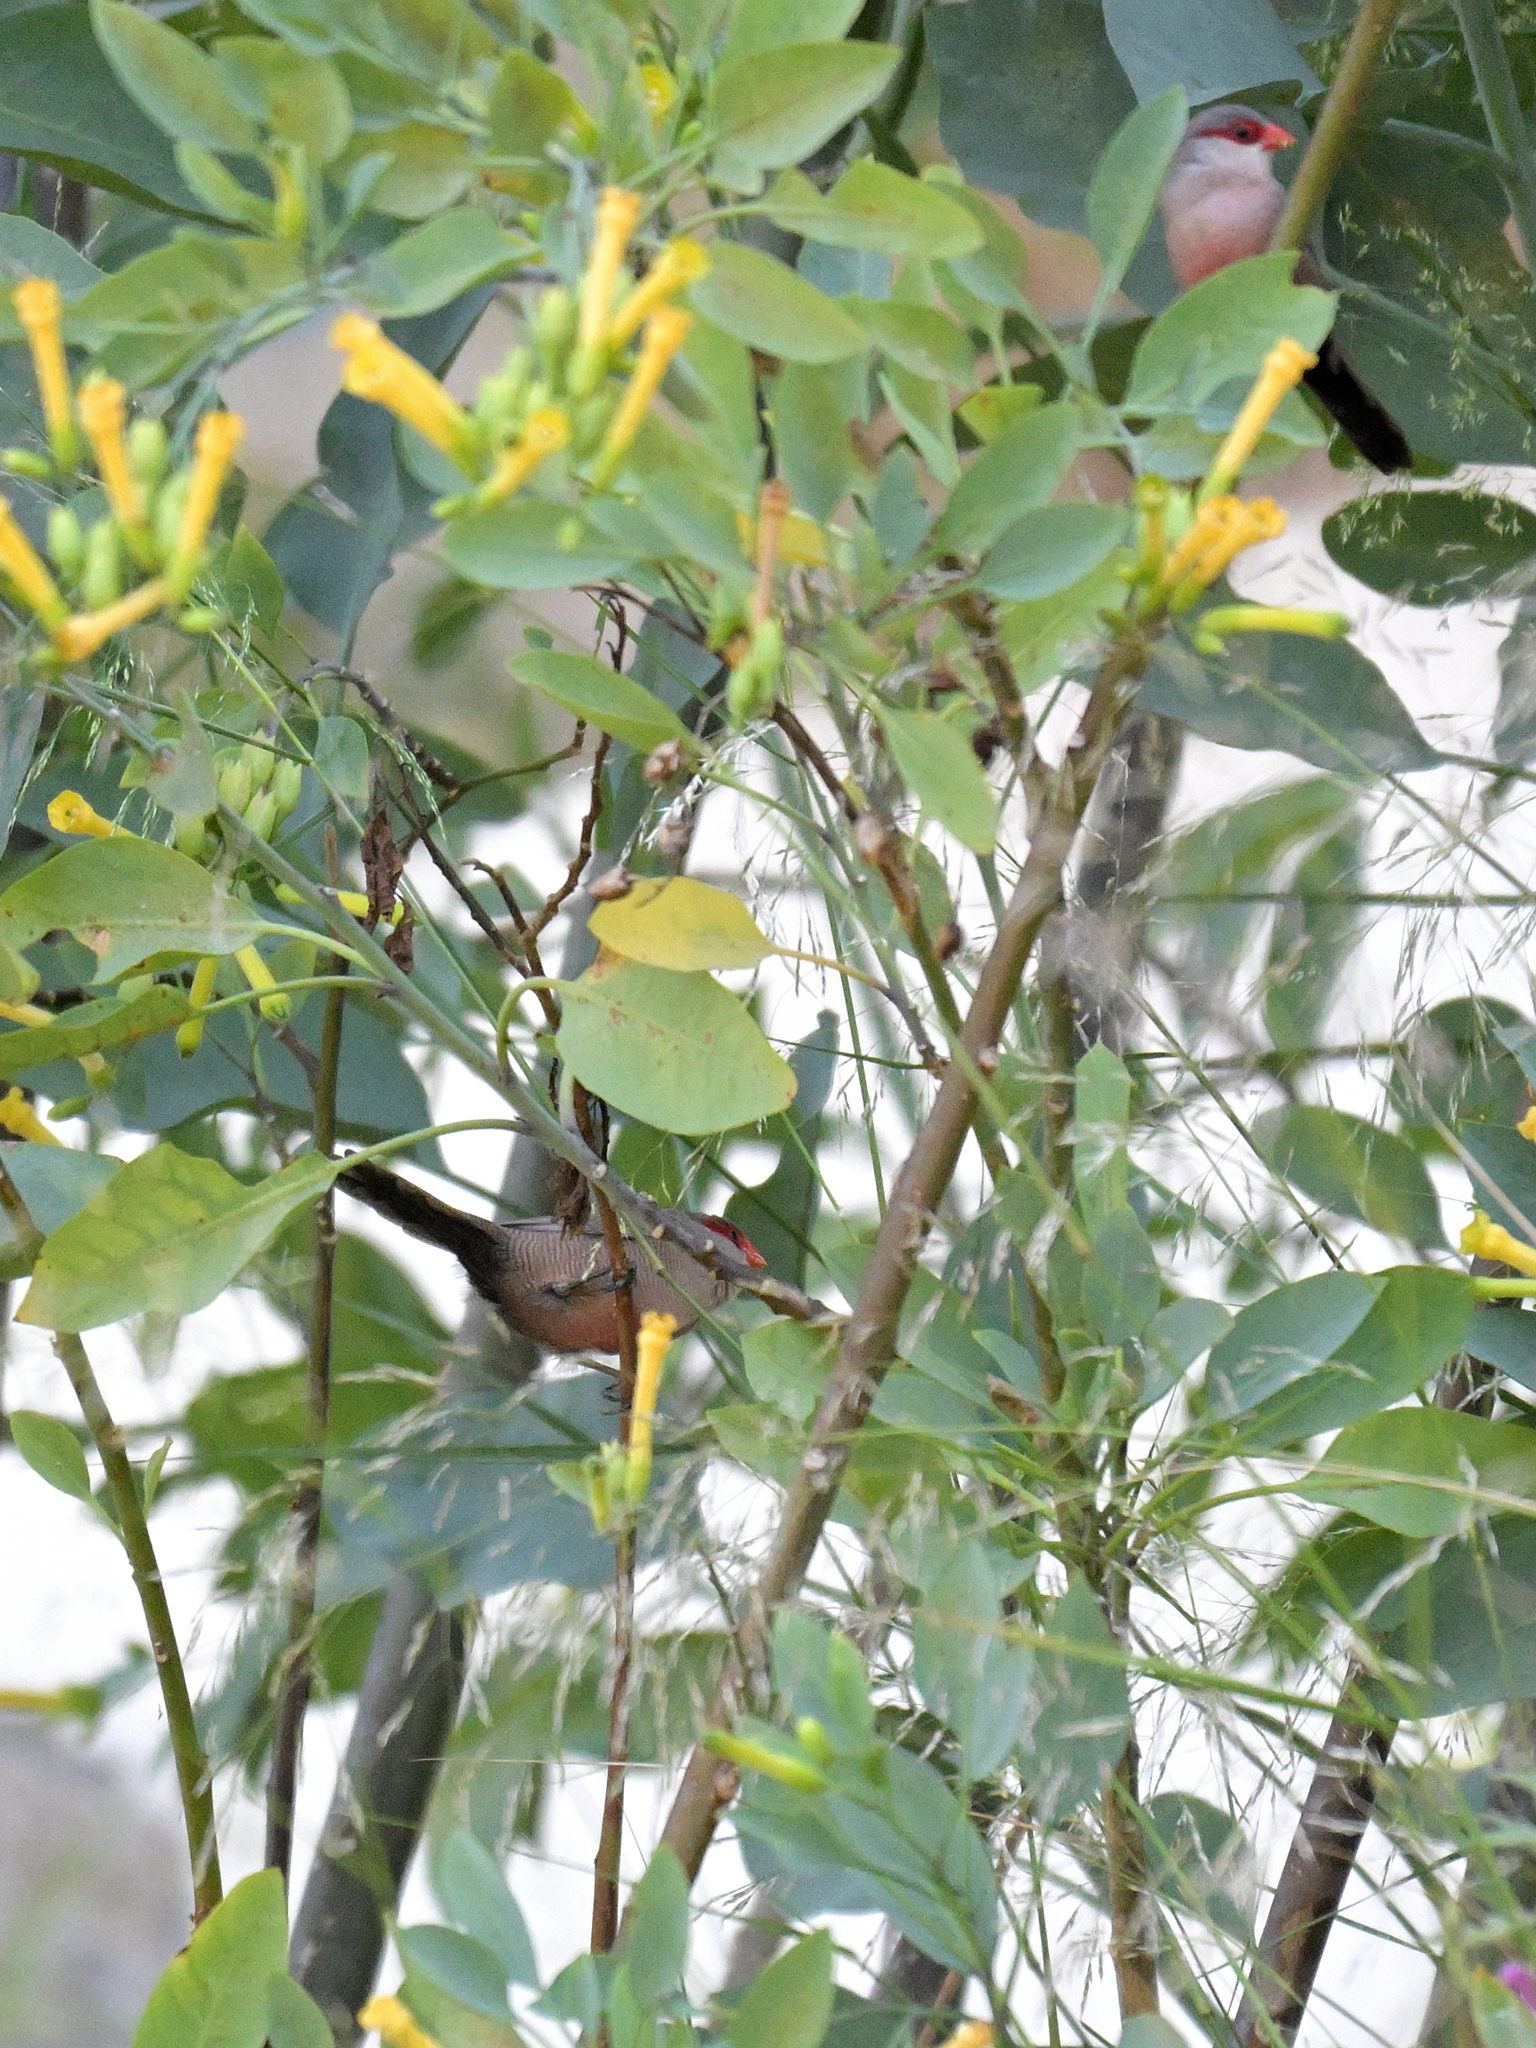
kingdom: Animalia
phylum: Chordata
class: Aves
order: Passeriformes
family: Estrildidae
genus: Estrilda
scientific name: Estrilda astrild
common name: Common waxbill
